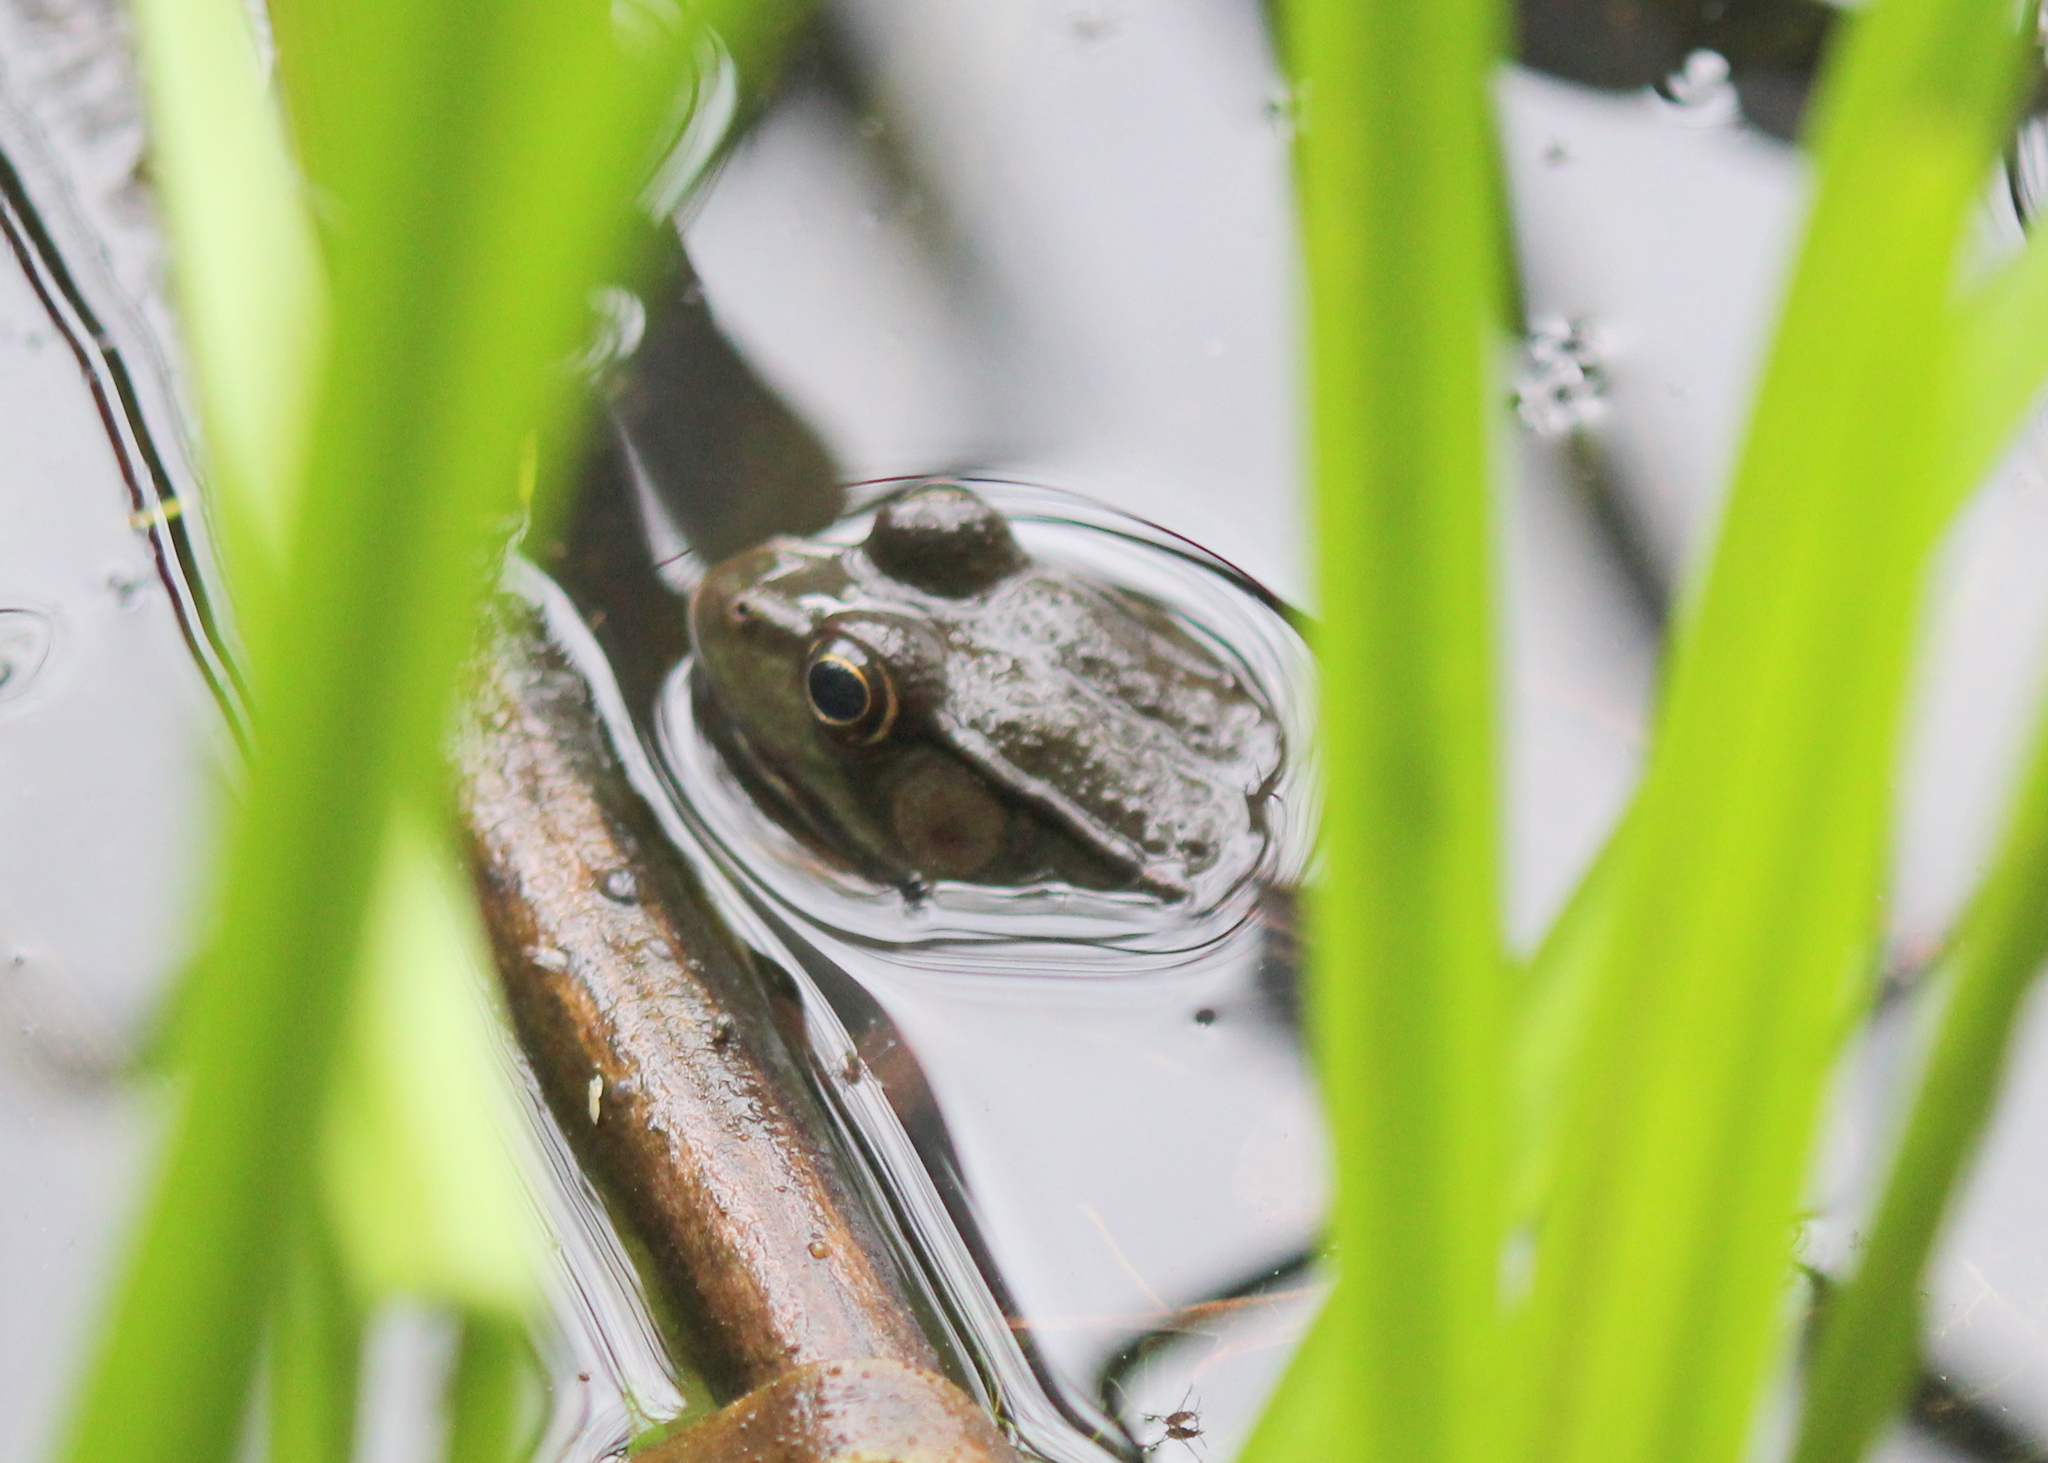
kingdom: Animalia
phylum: Chordata
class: Amphibia
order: Anura
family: Ranidae
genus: Lithobates
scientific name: Lithobates clamitans
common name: Green frog
